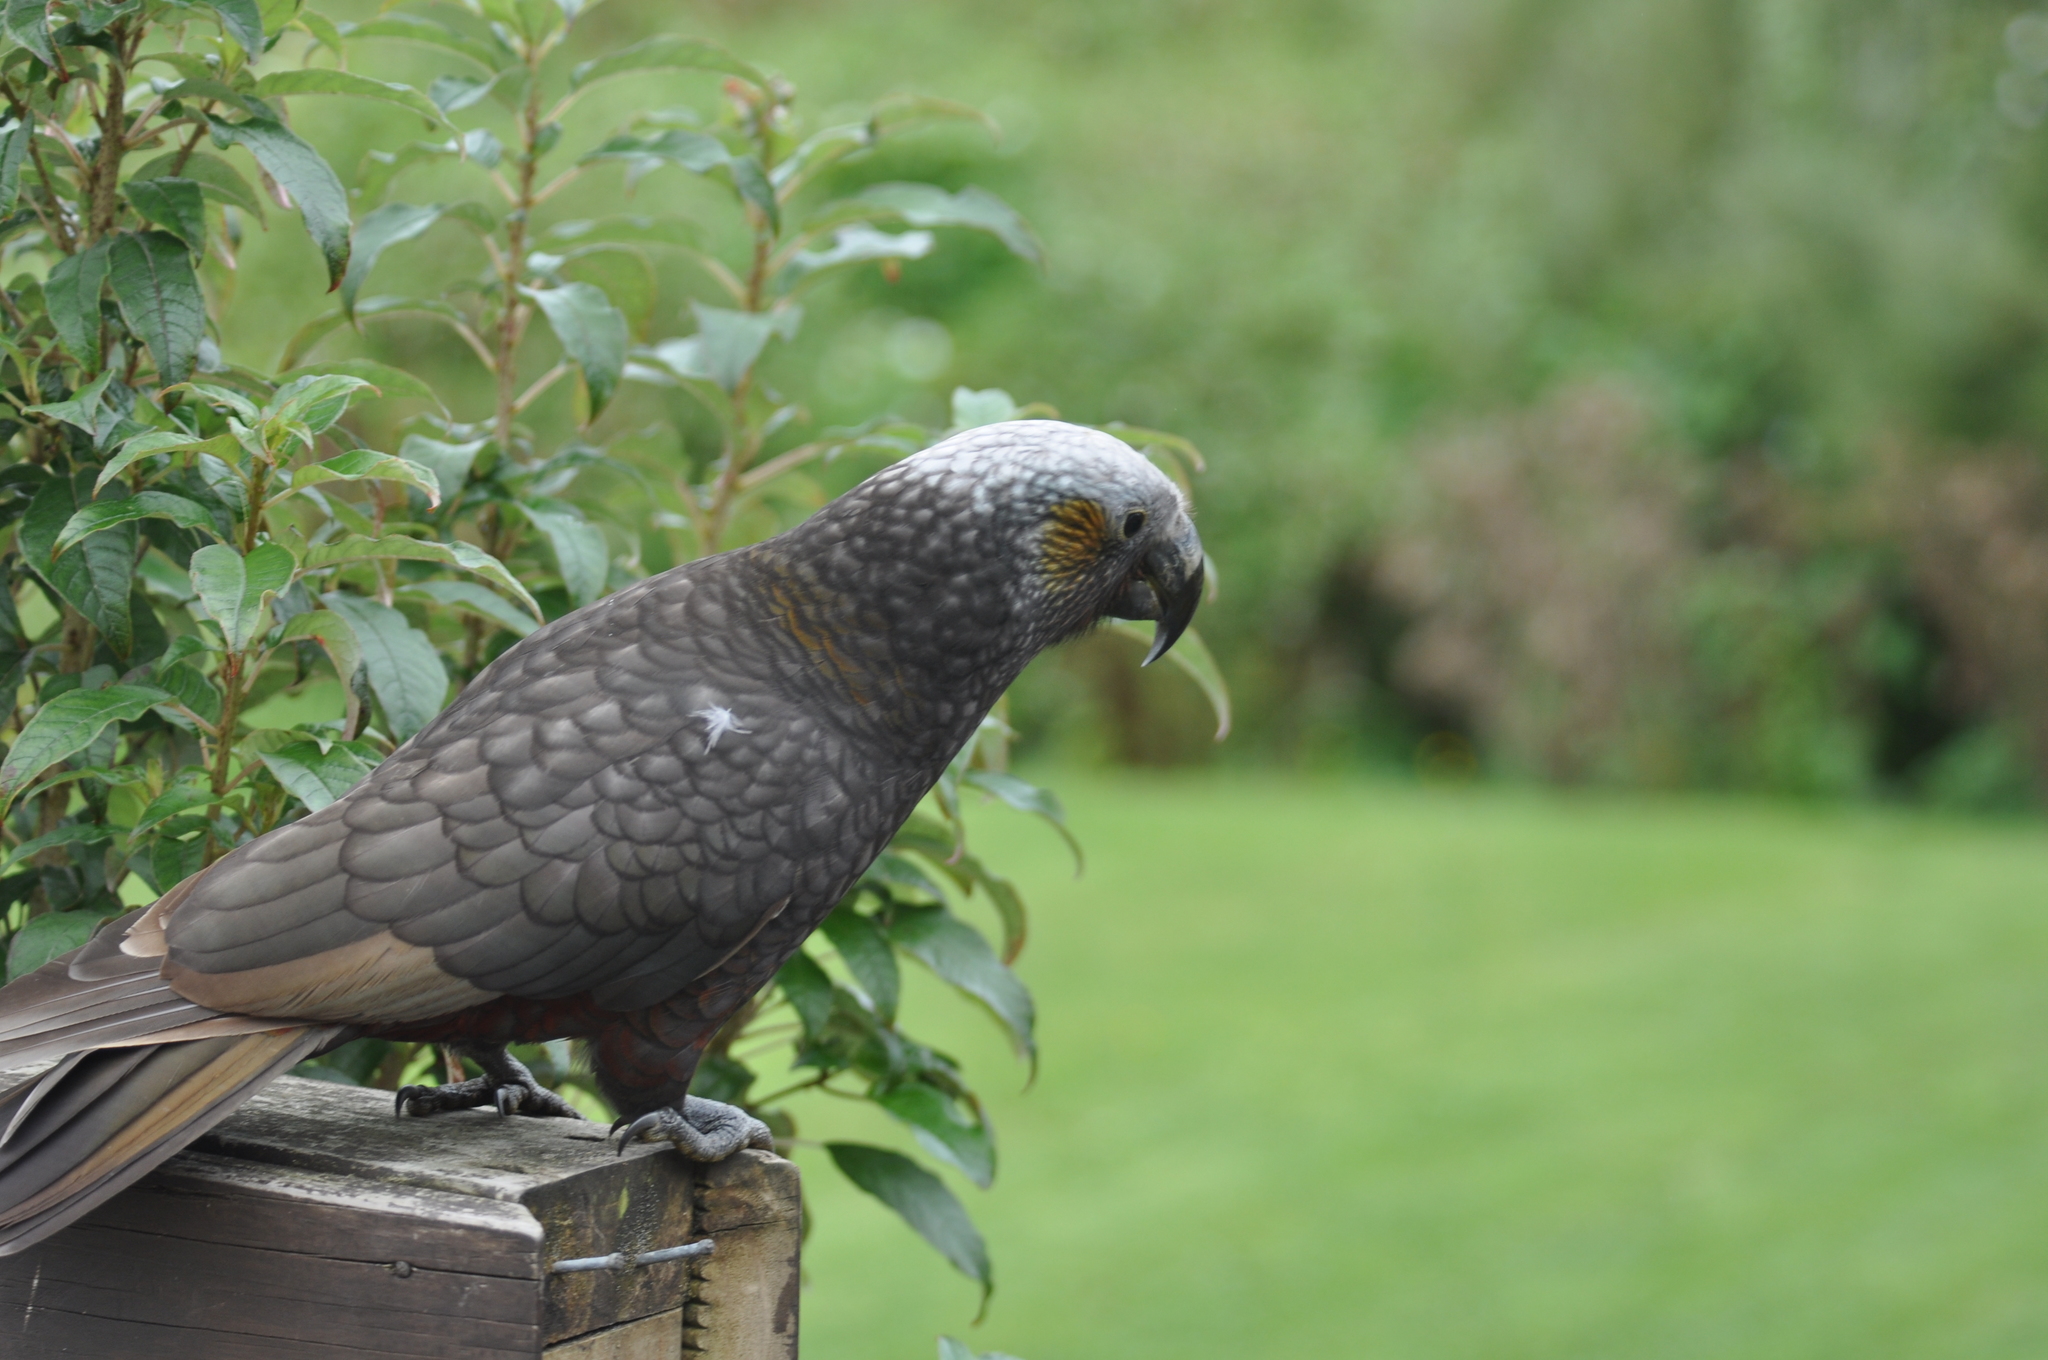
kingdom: Animalia
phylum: Chordata
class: Aves
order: Psittaciformes
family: Psittacidae
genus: Nestor
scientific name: Nestor meridionalis
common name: New zealand kaka
